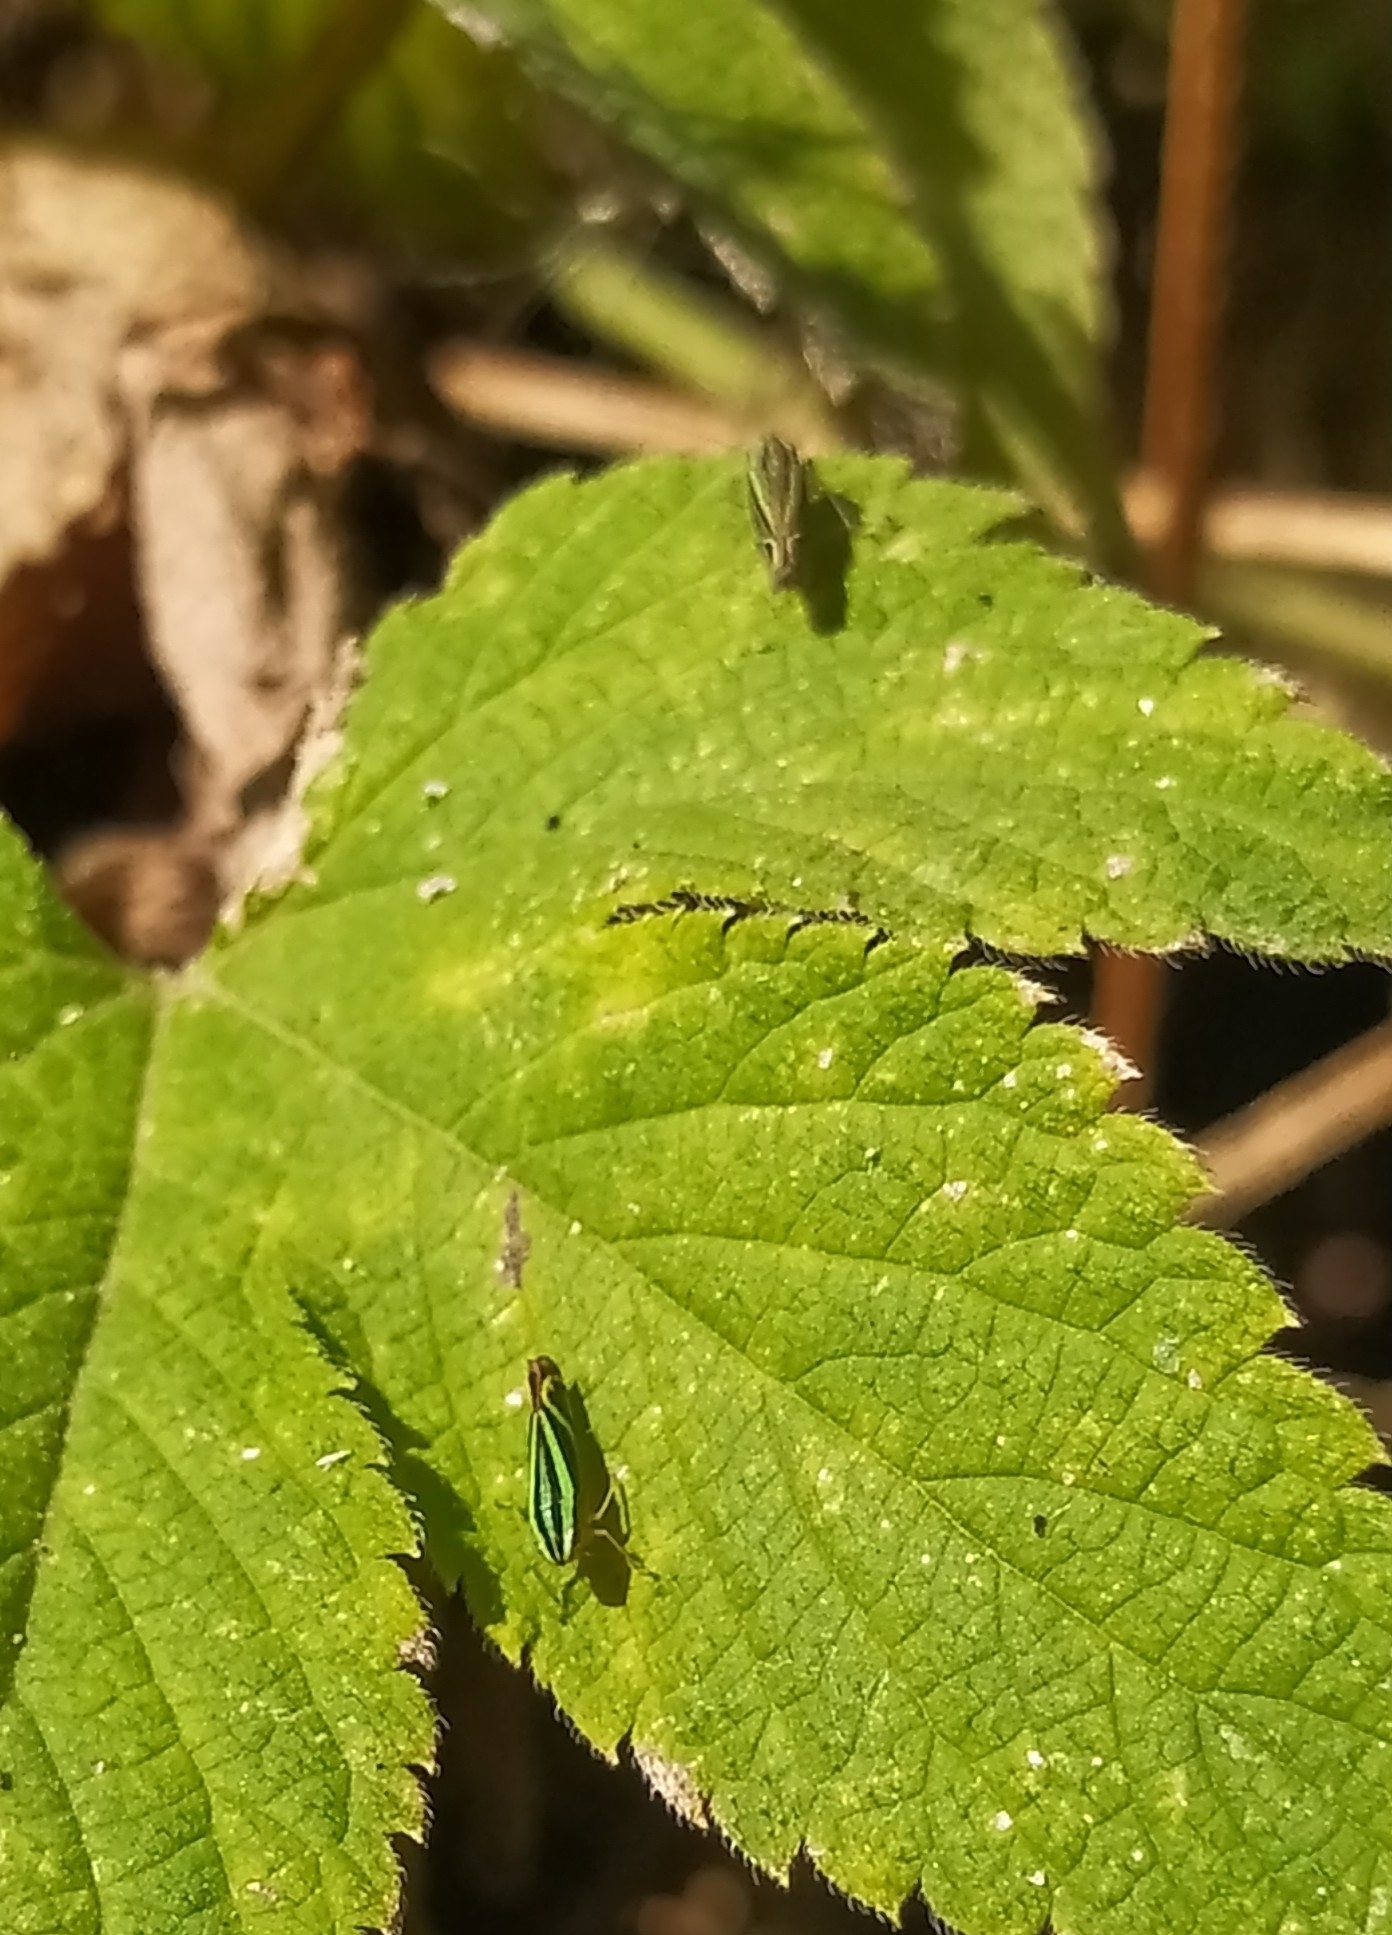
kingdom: Animalia
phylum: Arthropoda
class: Insecta
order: Hemiptera
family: Cicadellidae
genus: Sibovia
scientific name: Sibovia sagata
